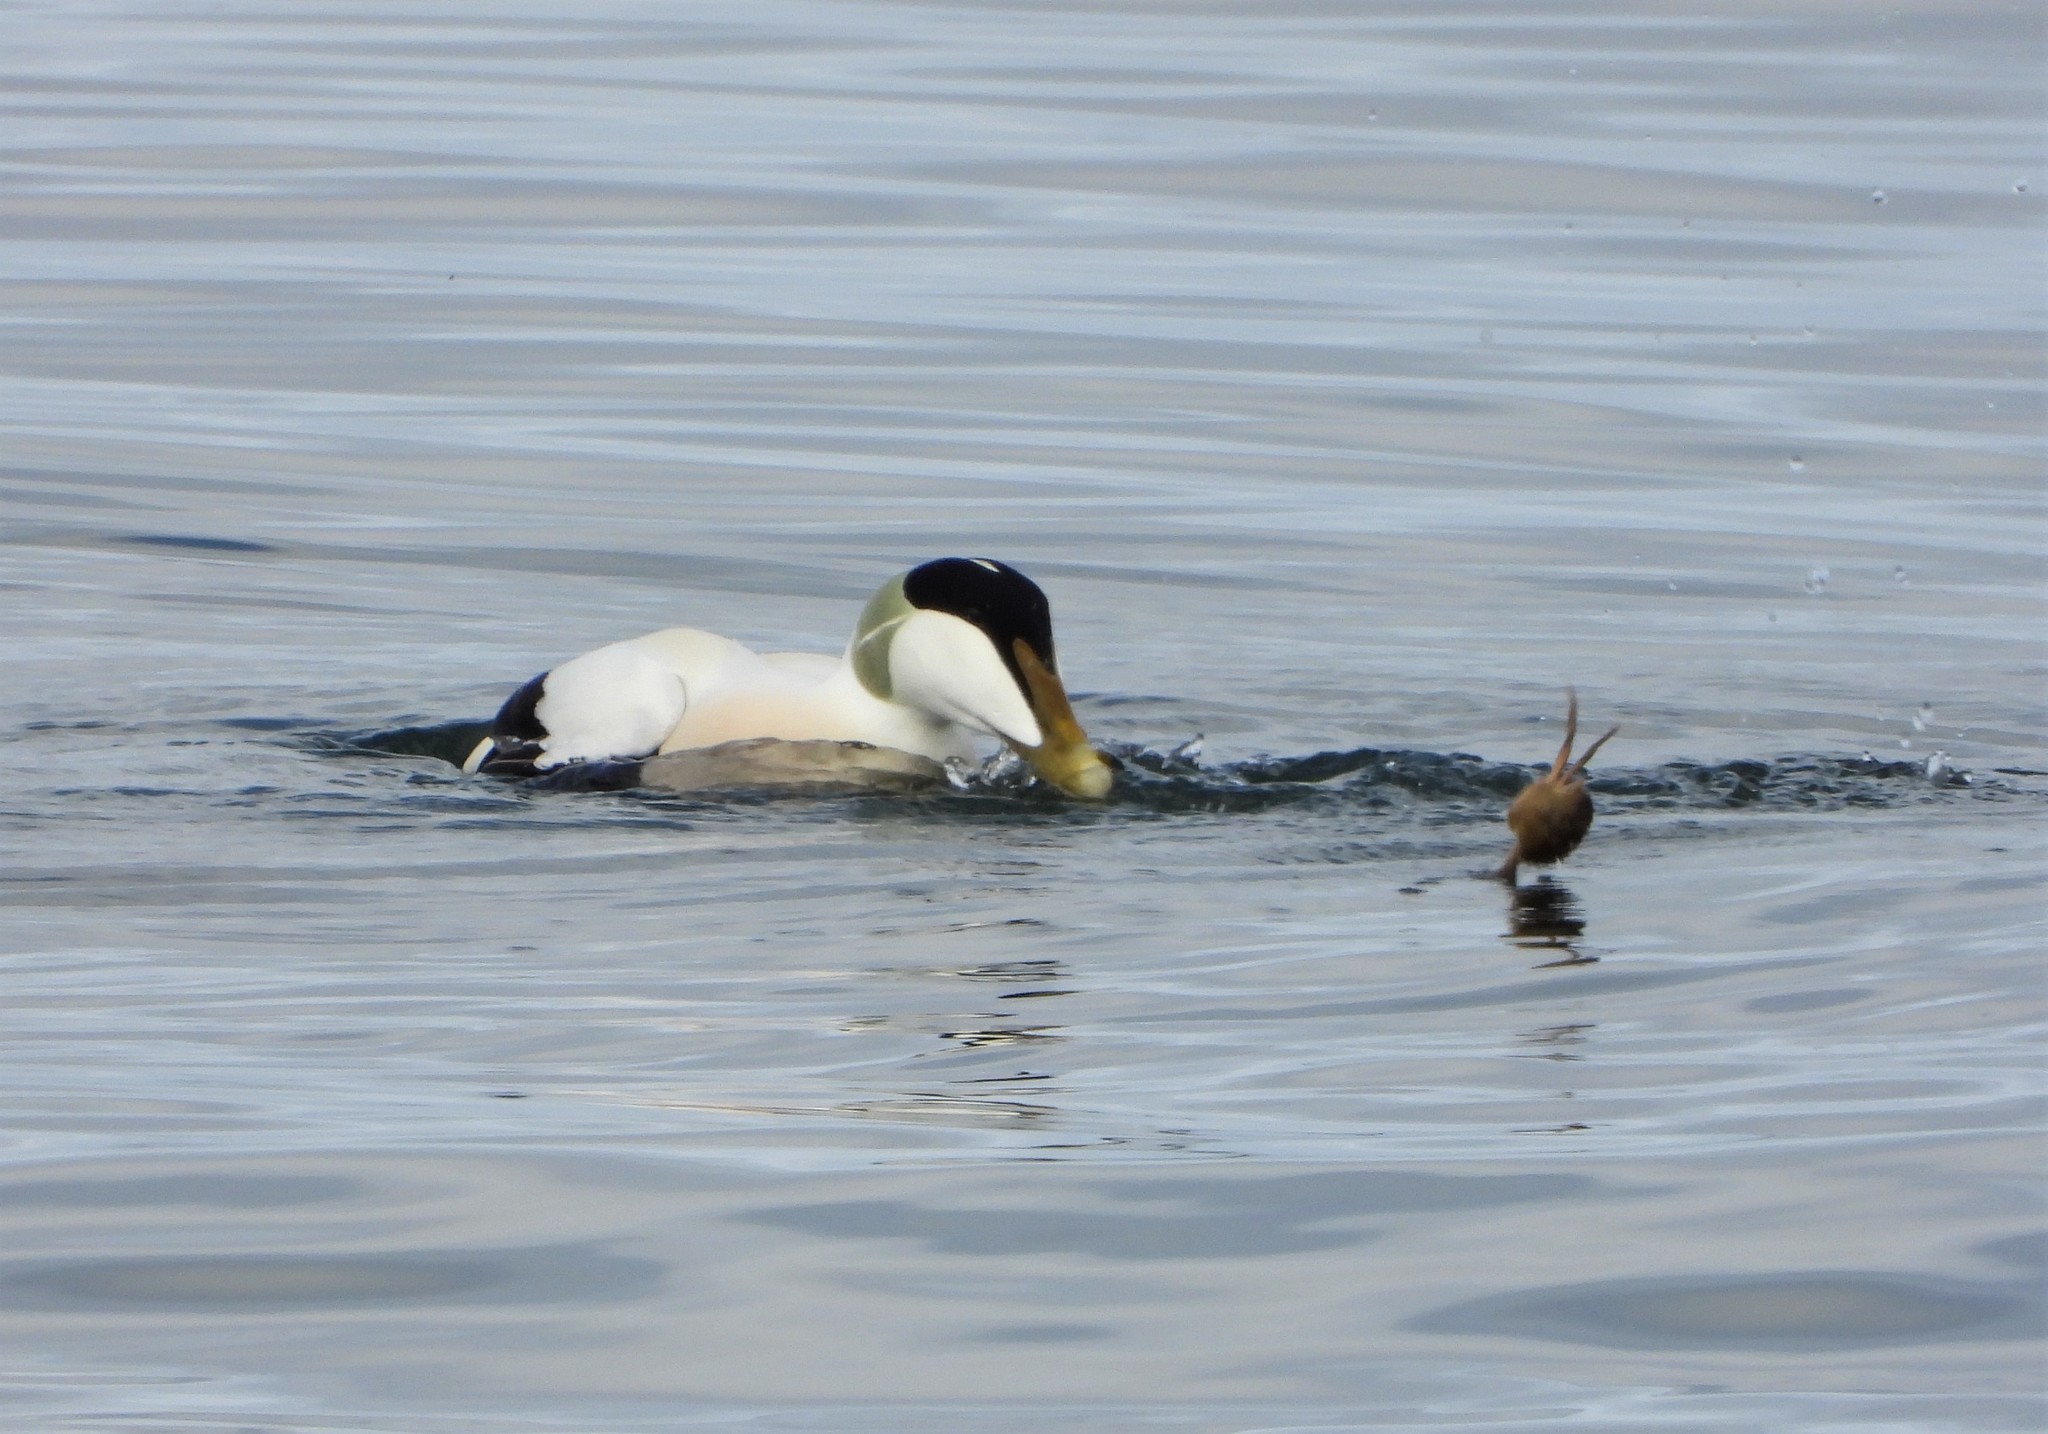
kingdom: Animalia
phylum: Chordata
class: Aves
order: Anseriformes
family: Anatidae
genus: Somateria
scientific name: Somateria mollissima
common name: Common eider
